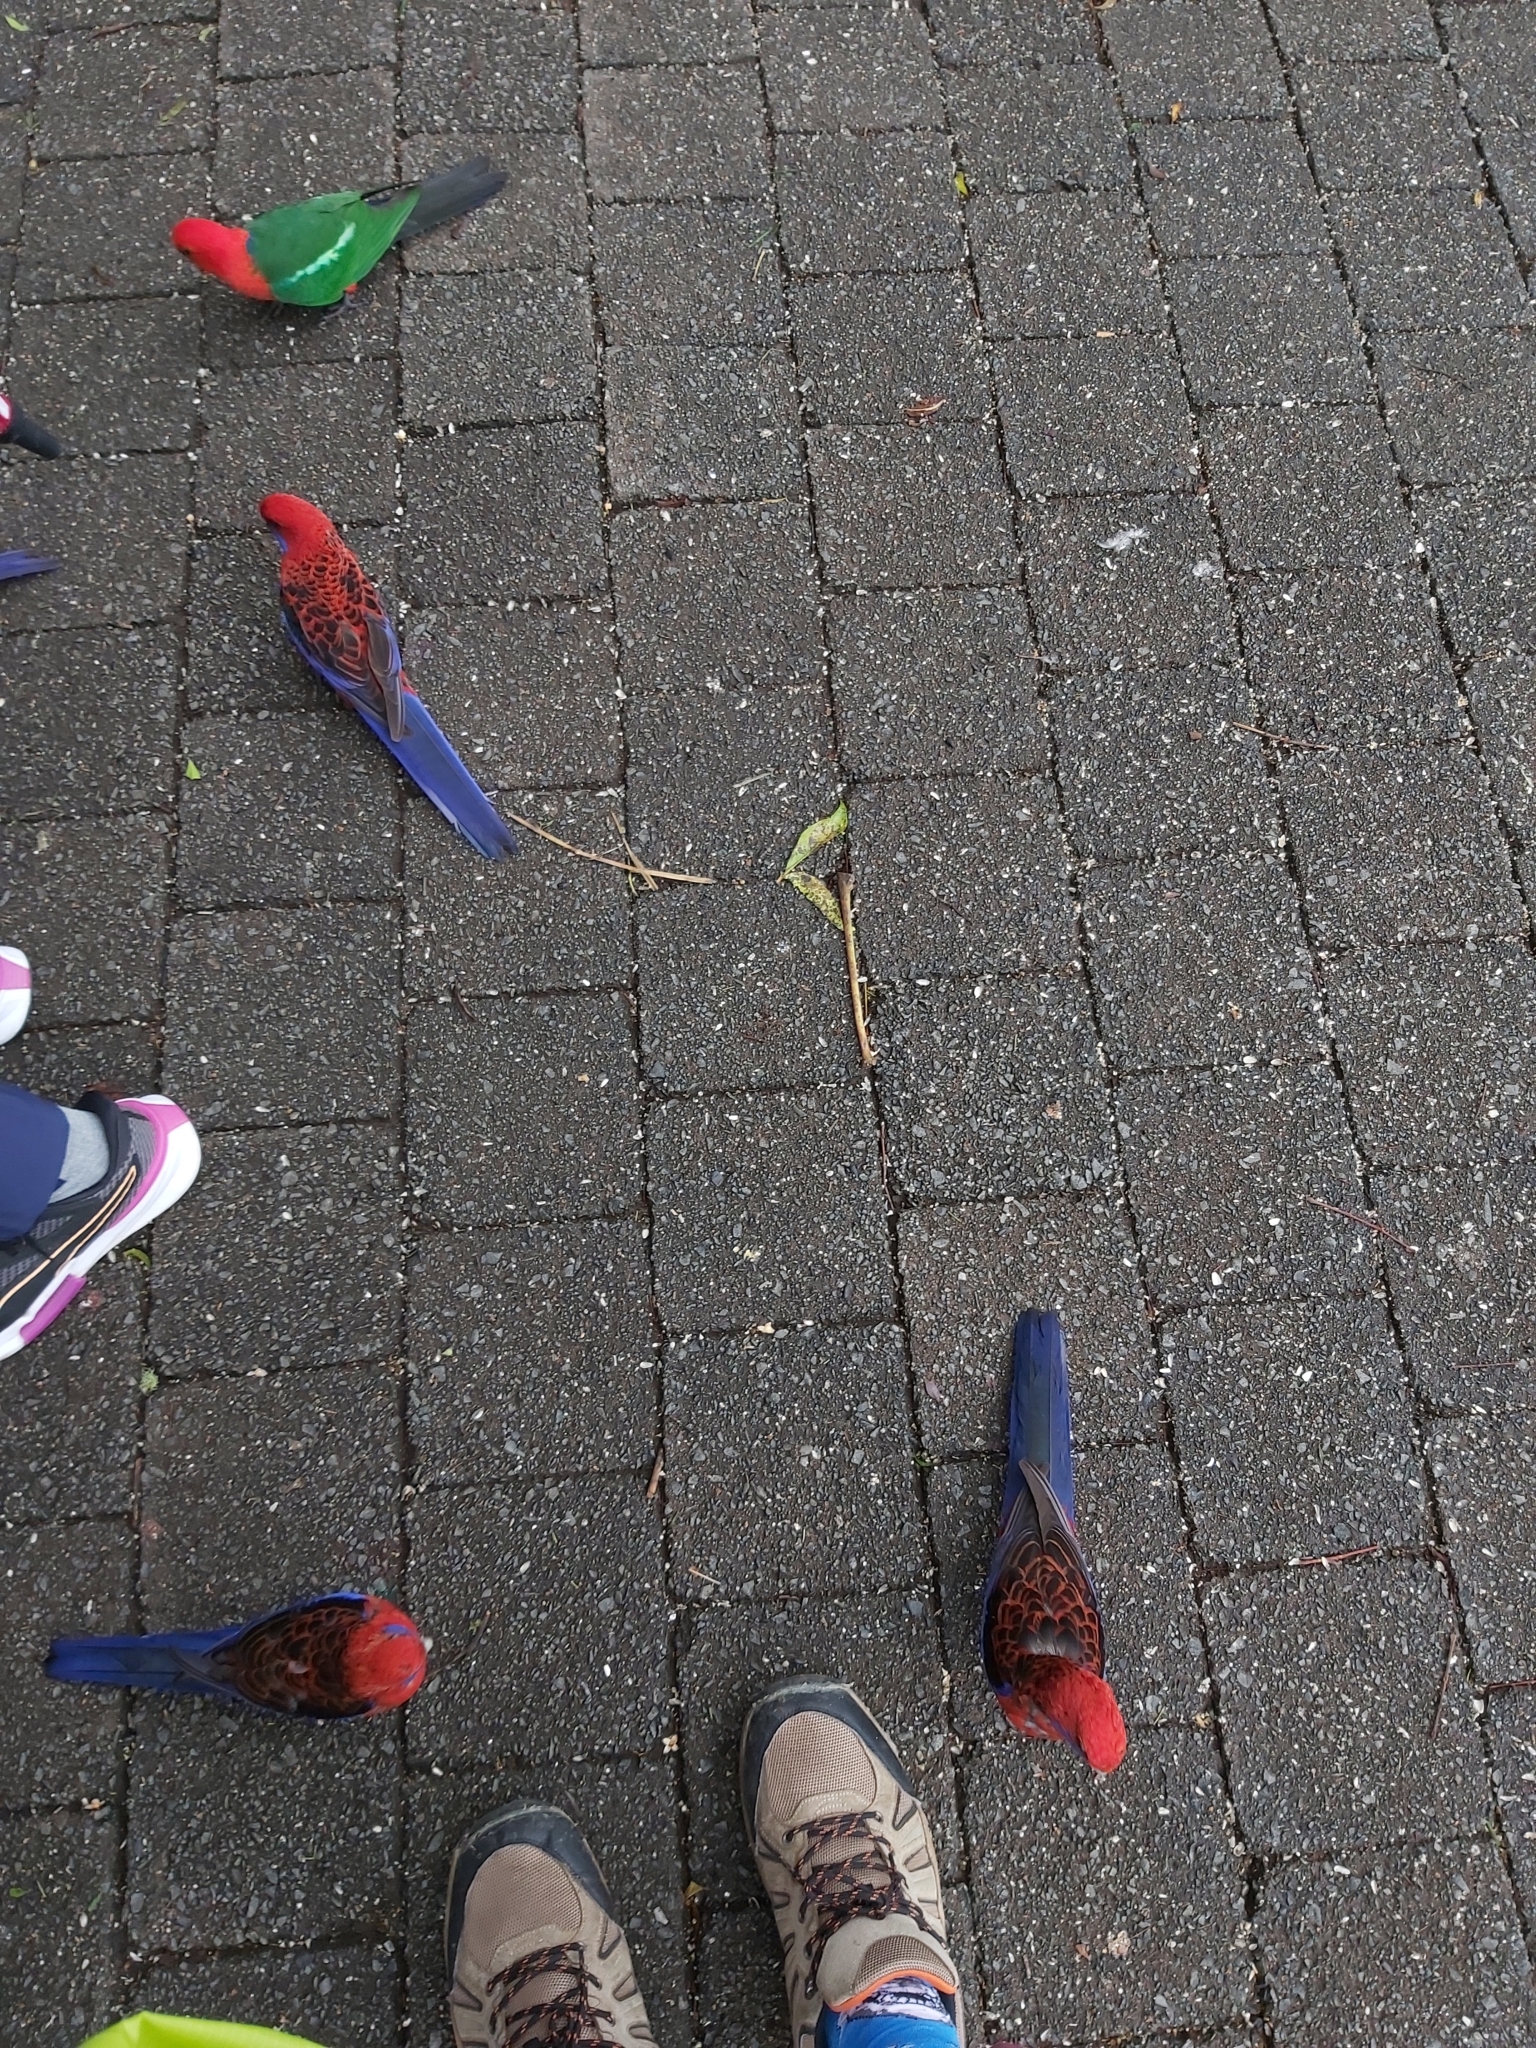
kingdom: Animalia
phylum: Chordata
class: Aves
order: Psittaciformes
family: Psittacidae
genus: Alisterus
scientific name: Alisterus scapularis
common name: Australian king parrot
